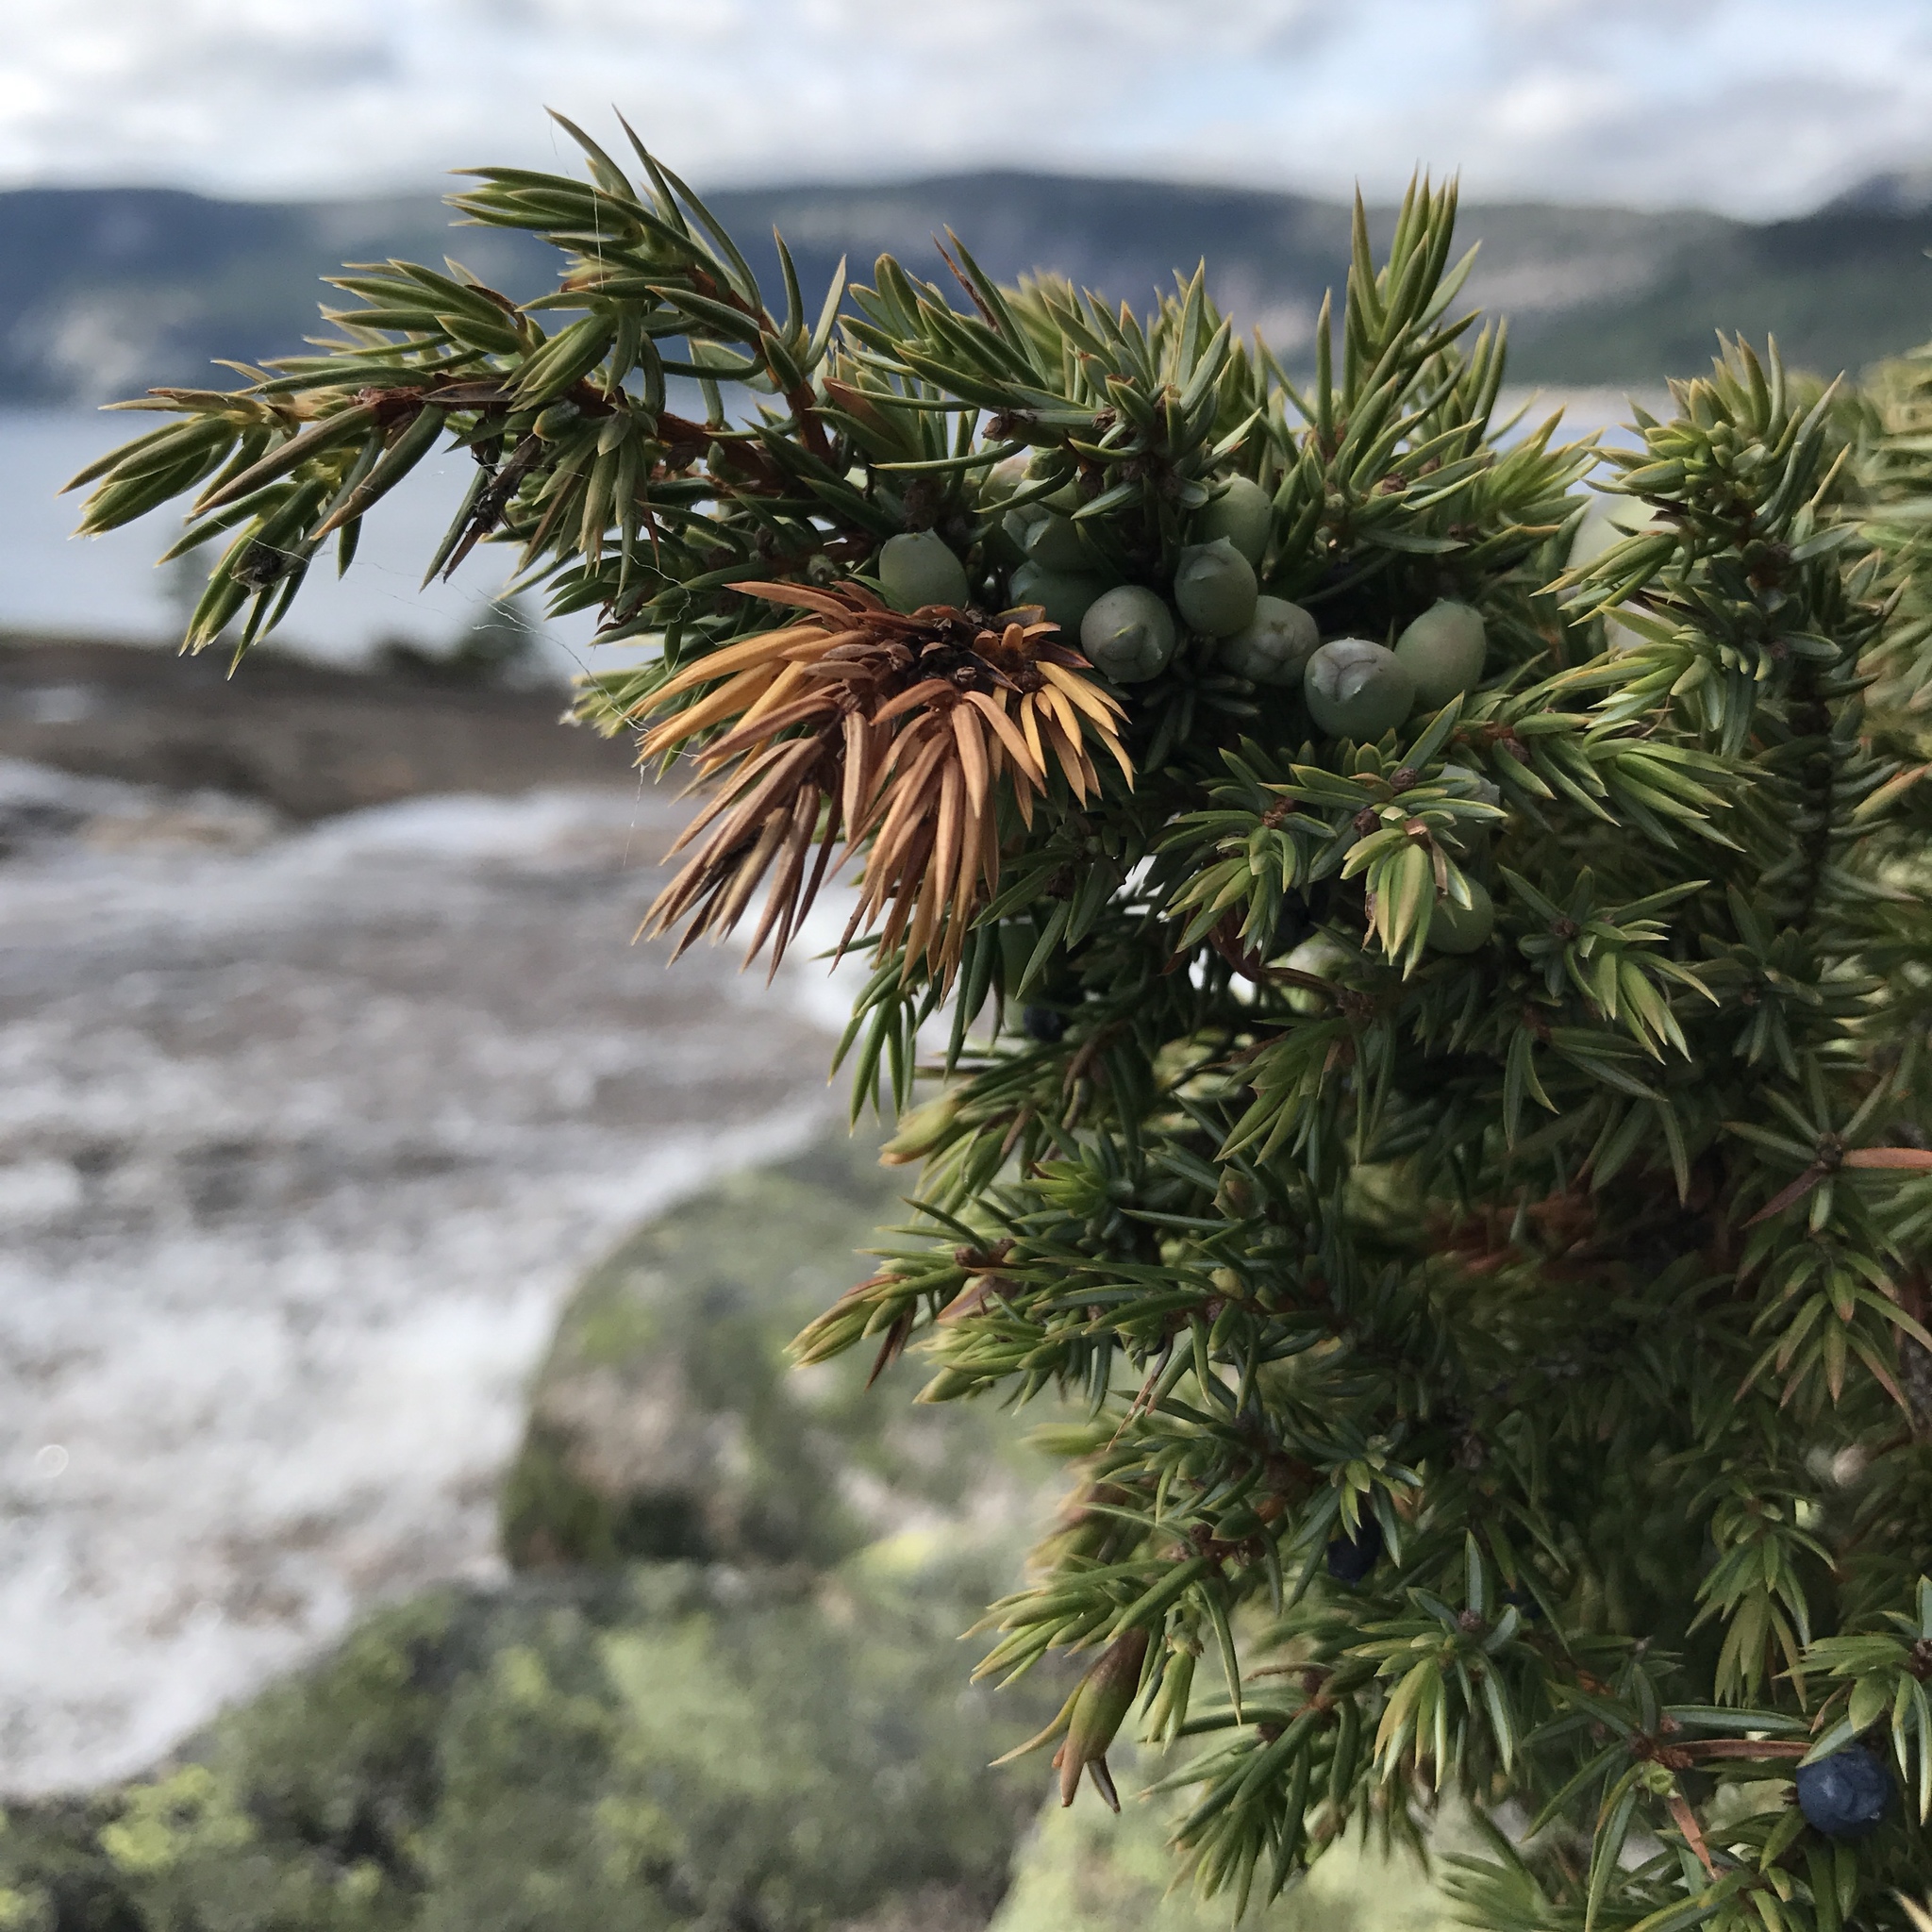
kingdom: Plantae
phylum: Tracheophyta
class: Pinopsida
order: Pinales
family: Cupressaceae
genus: Juniperus
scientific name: Juniperus communis
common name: Common juniper
